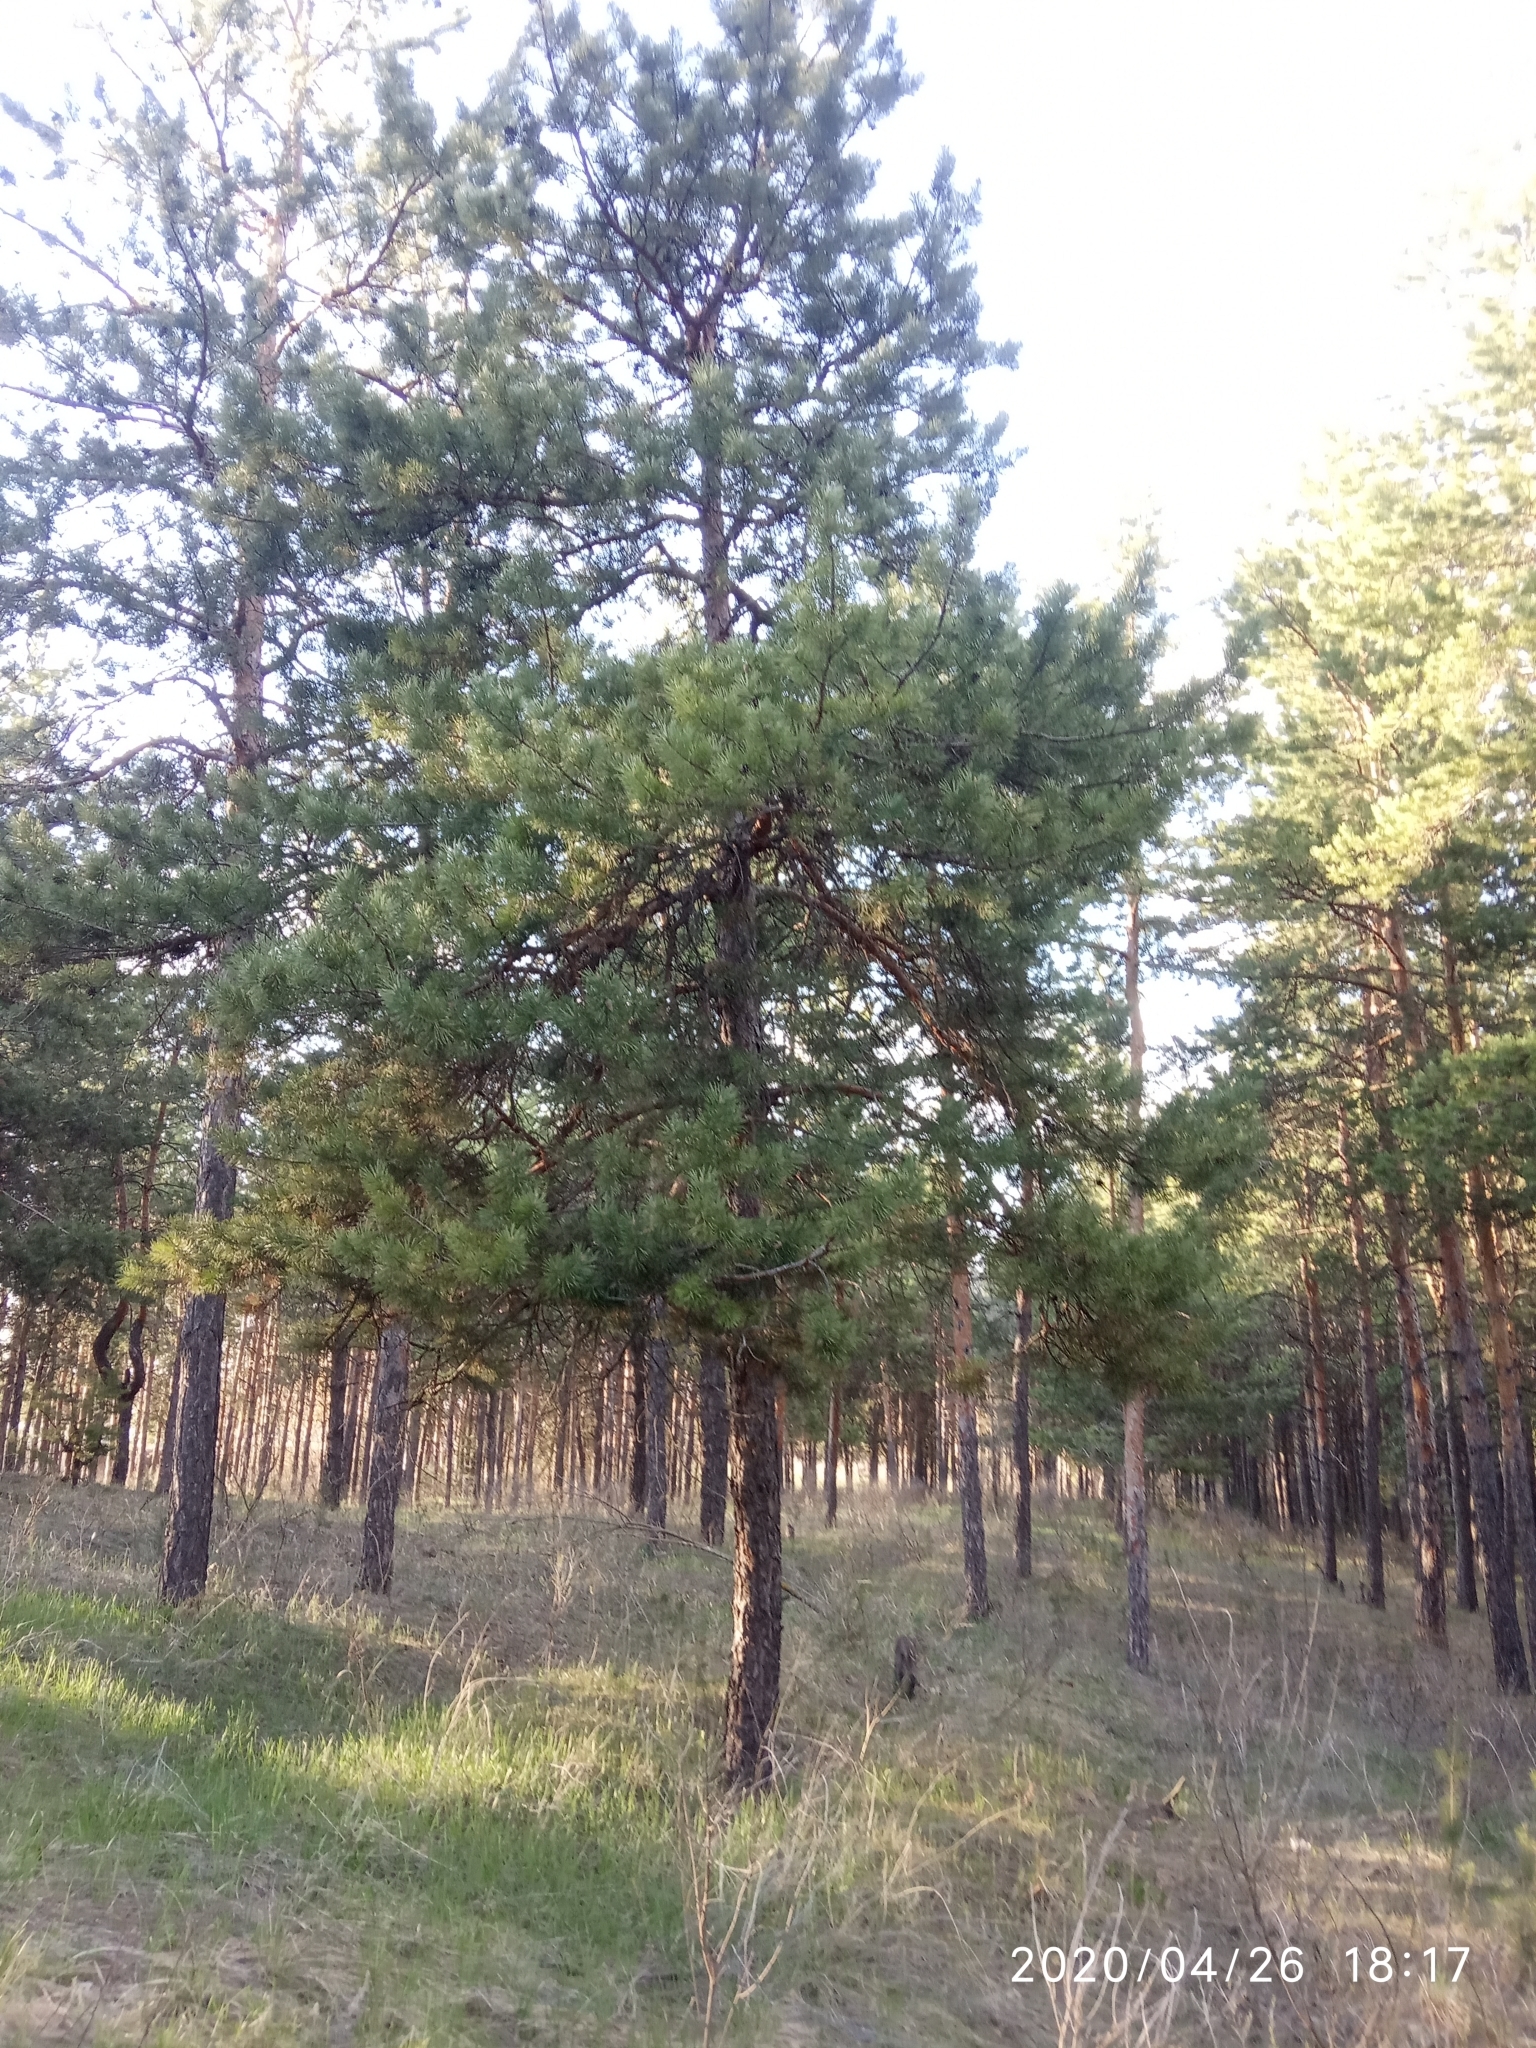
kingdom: Plantae
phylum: Tracheophyta
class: Pinopsida
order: Pinales
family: Pinaceae
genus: Pinus
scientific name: Pinus sylvestris
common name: Scots pine
